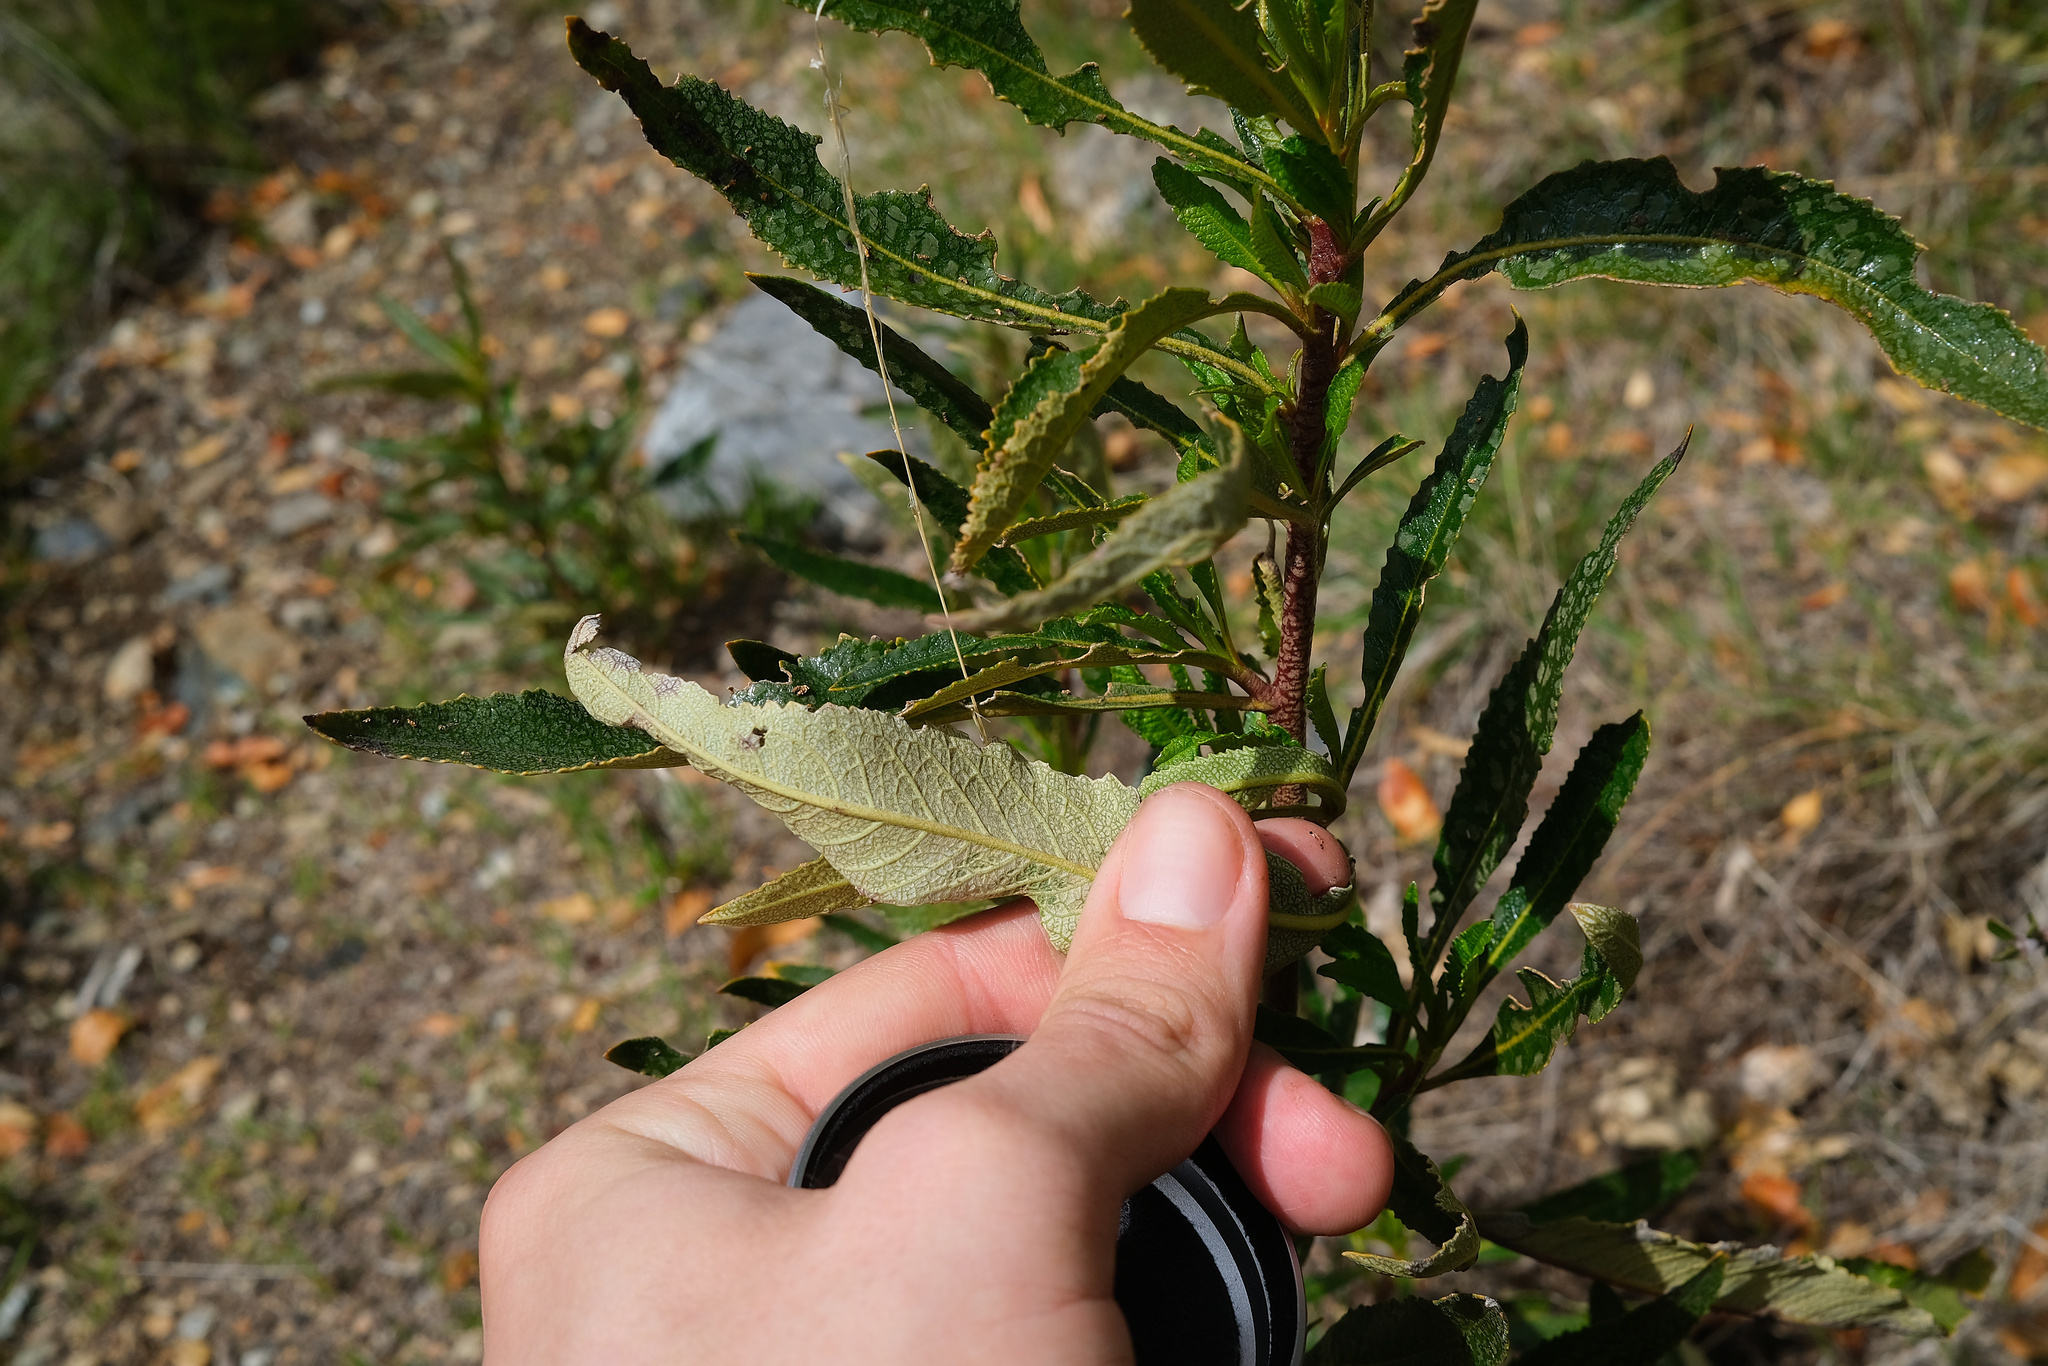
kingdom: Plantae
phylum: Tracheophyta
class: Magnoliopsida
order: Boraginales
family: Namaceae
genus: Eriodictyon
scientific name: Eriodictyon californicum
